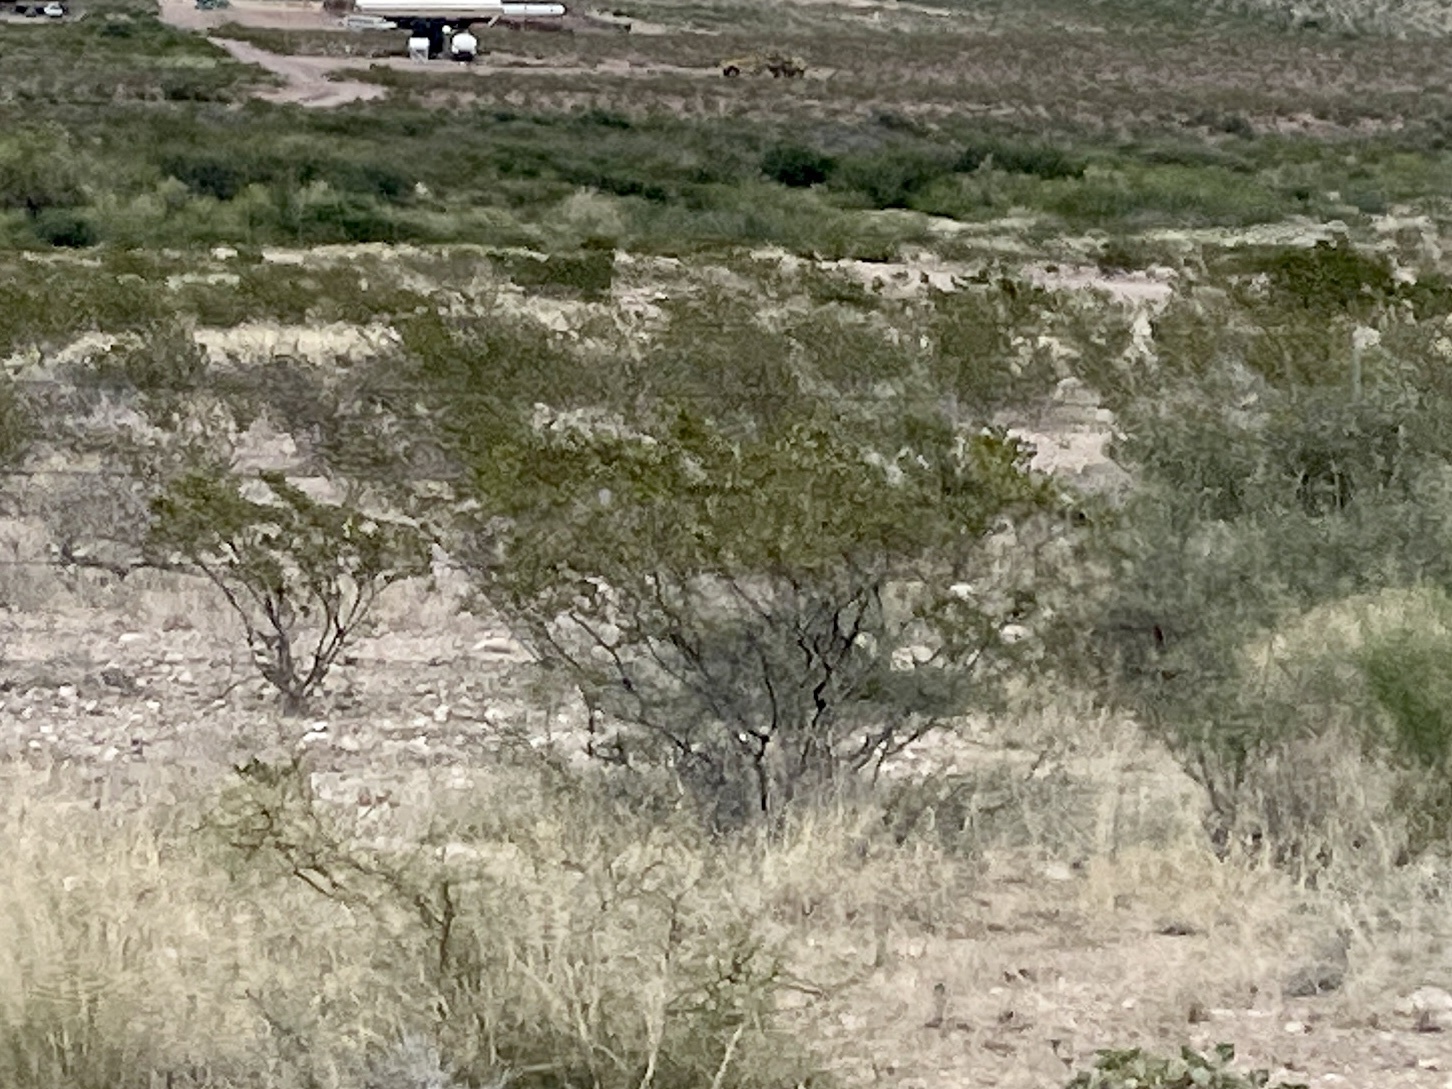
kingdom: Plantae
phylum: Tracheophyta
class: Magnoliopsida
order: Zygophyllales
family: Zygophyllaceae
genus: Larrea
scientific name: Larrea tridentata
